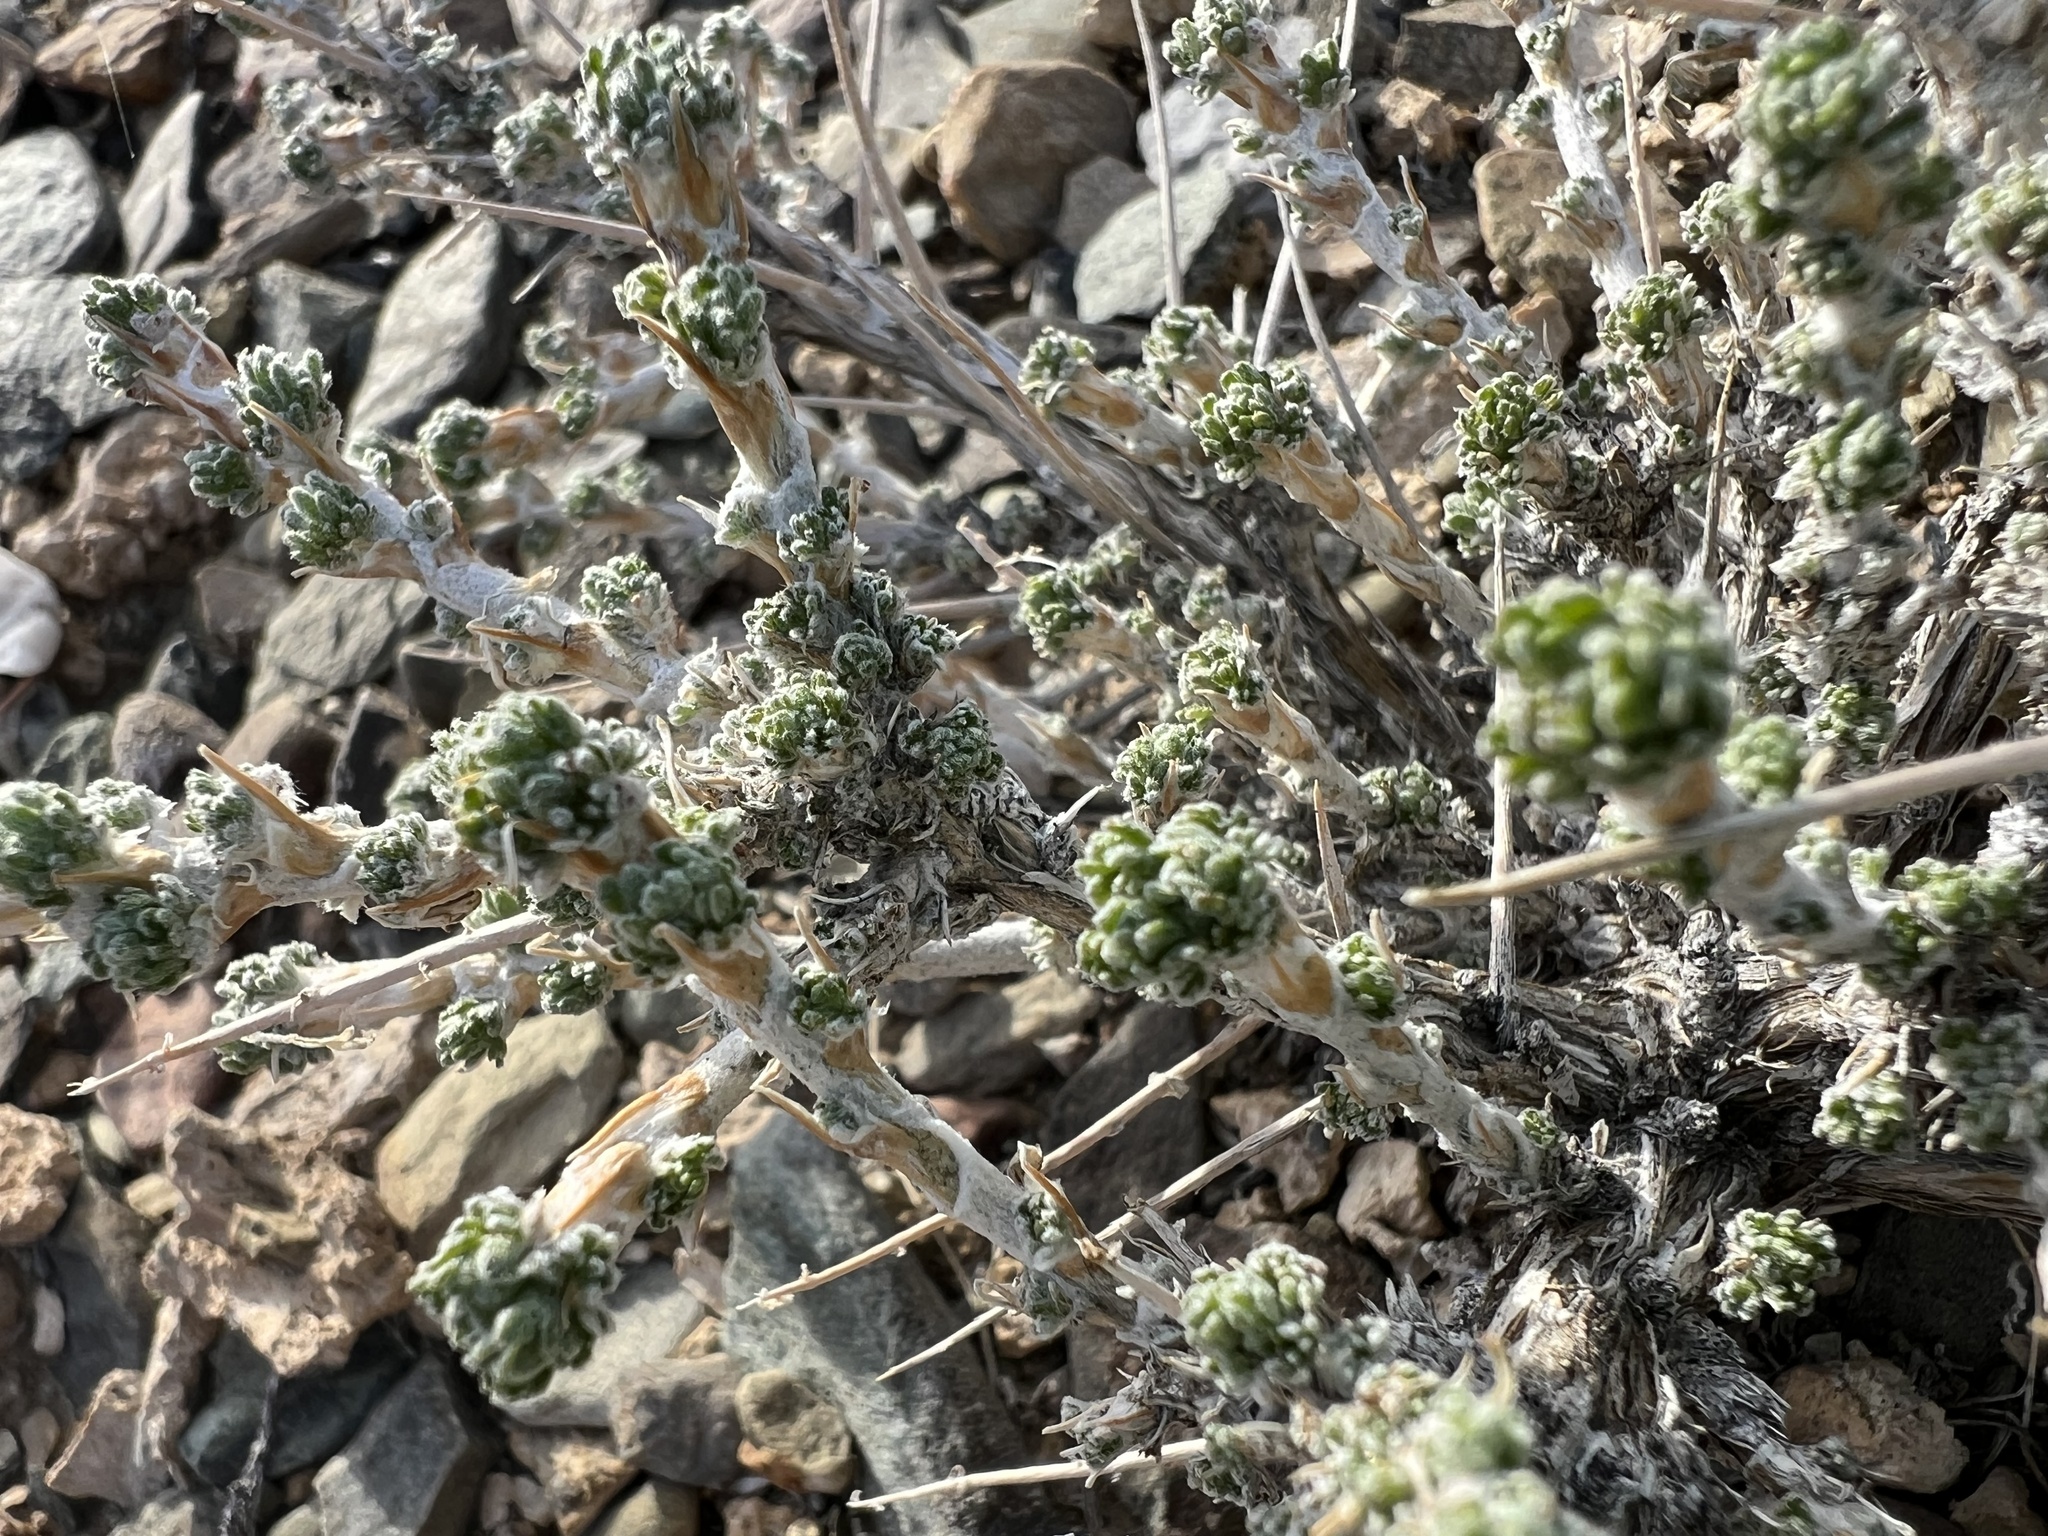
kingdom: Plantae
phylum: Tracheophyta
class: Magnoliopsida
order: Asterales
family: Asteraceae
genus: Artemisia
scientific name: Artemisia spinescens
